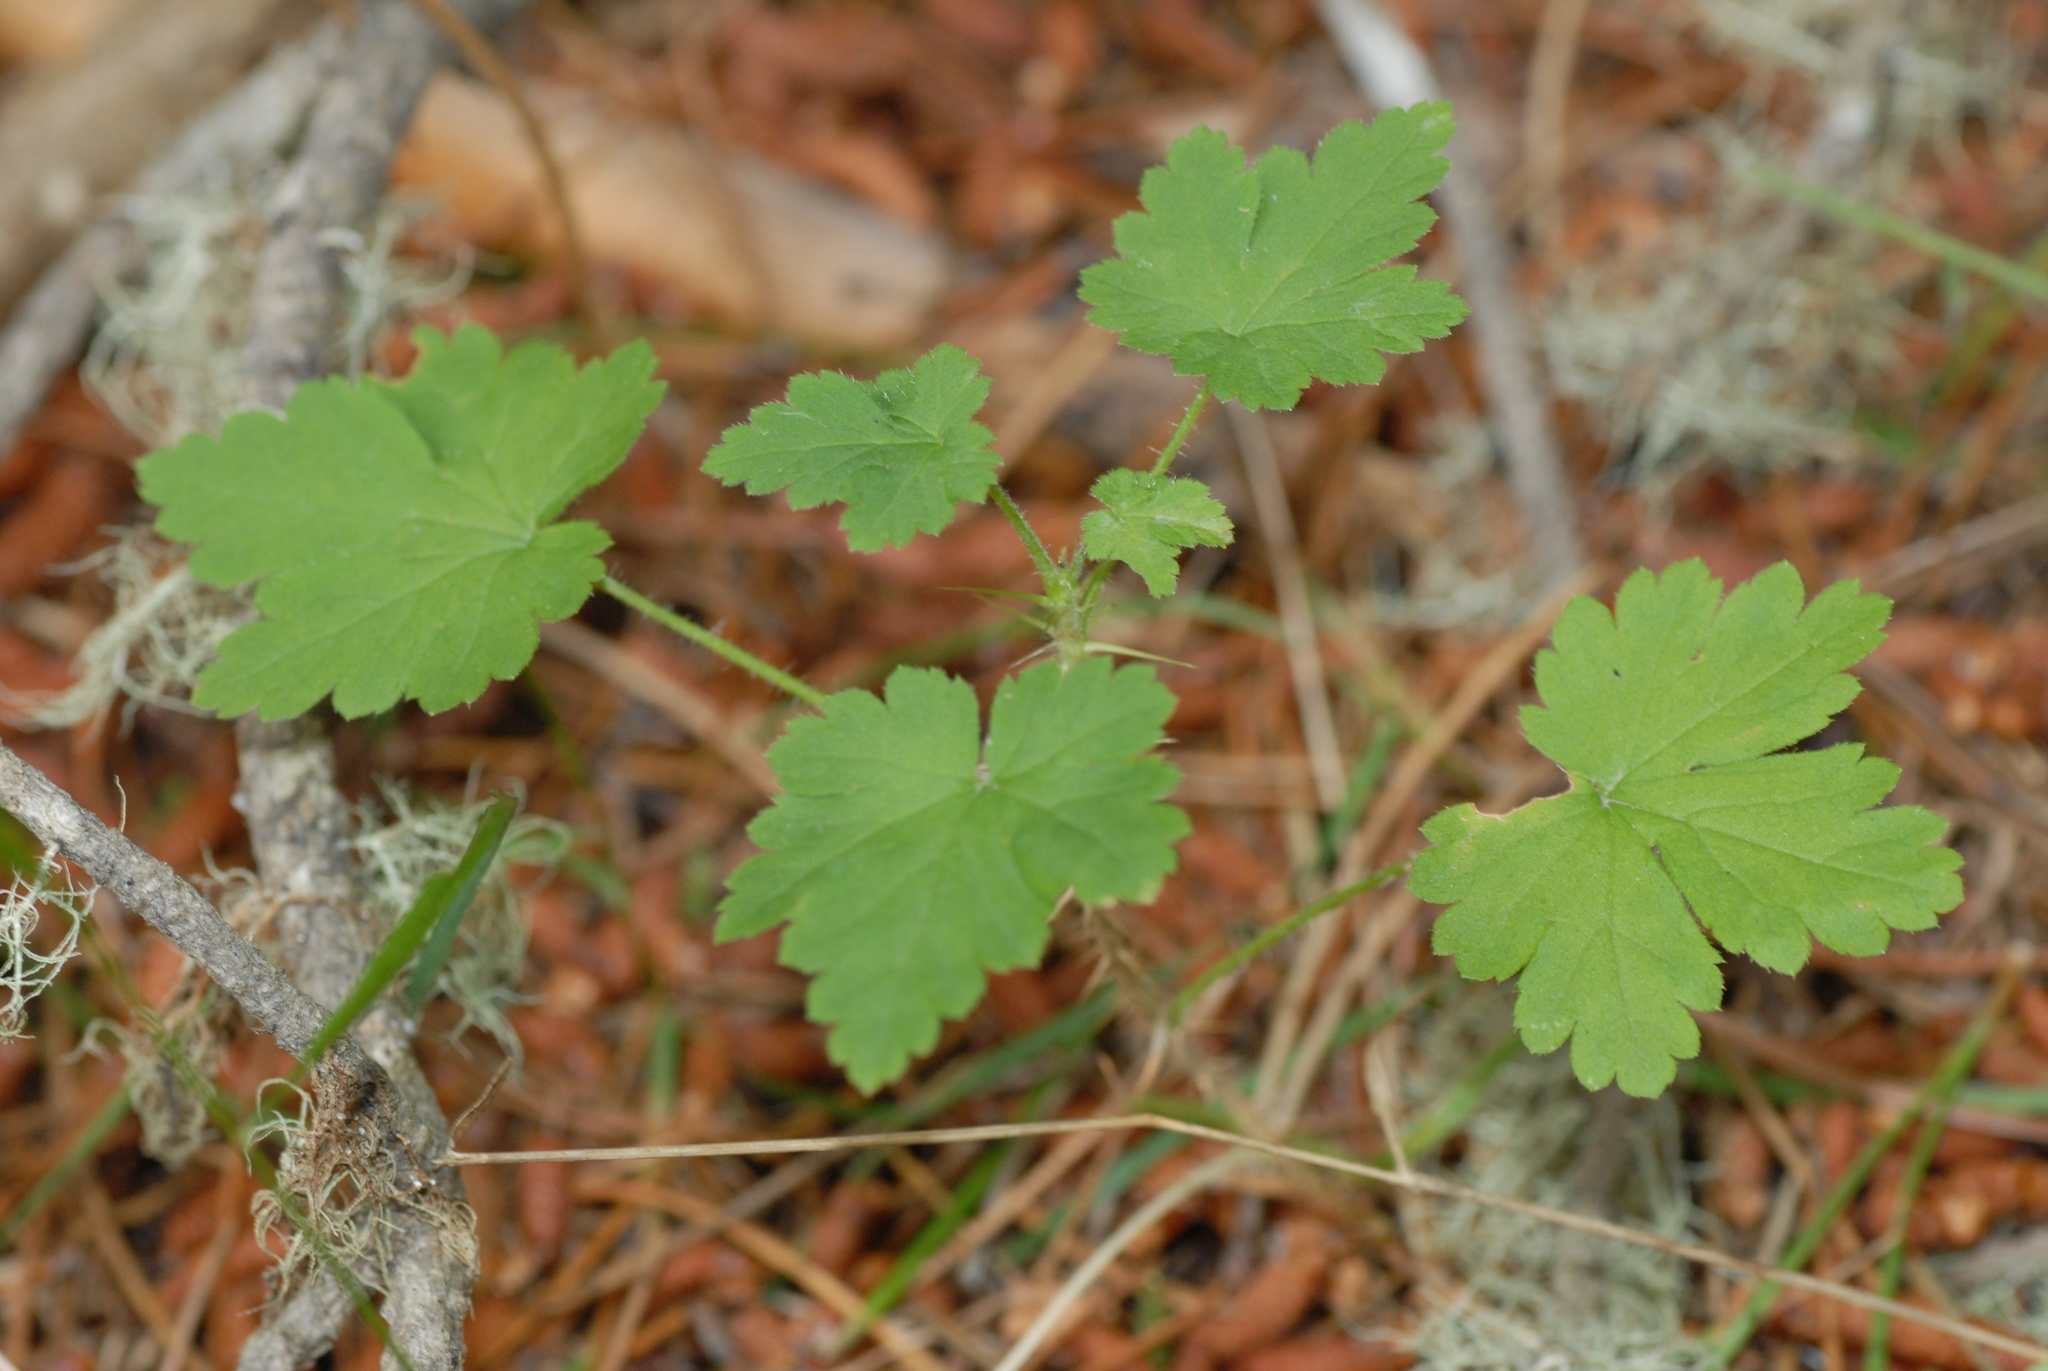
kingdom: Plantae
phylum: Tracheophyta
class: Magnoliopsida
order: Saxifragales
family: Grossulariaceae
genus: Ribes
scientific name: Ribes uva-crispa
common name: Gooseberry
